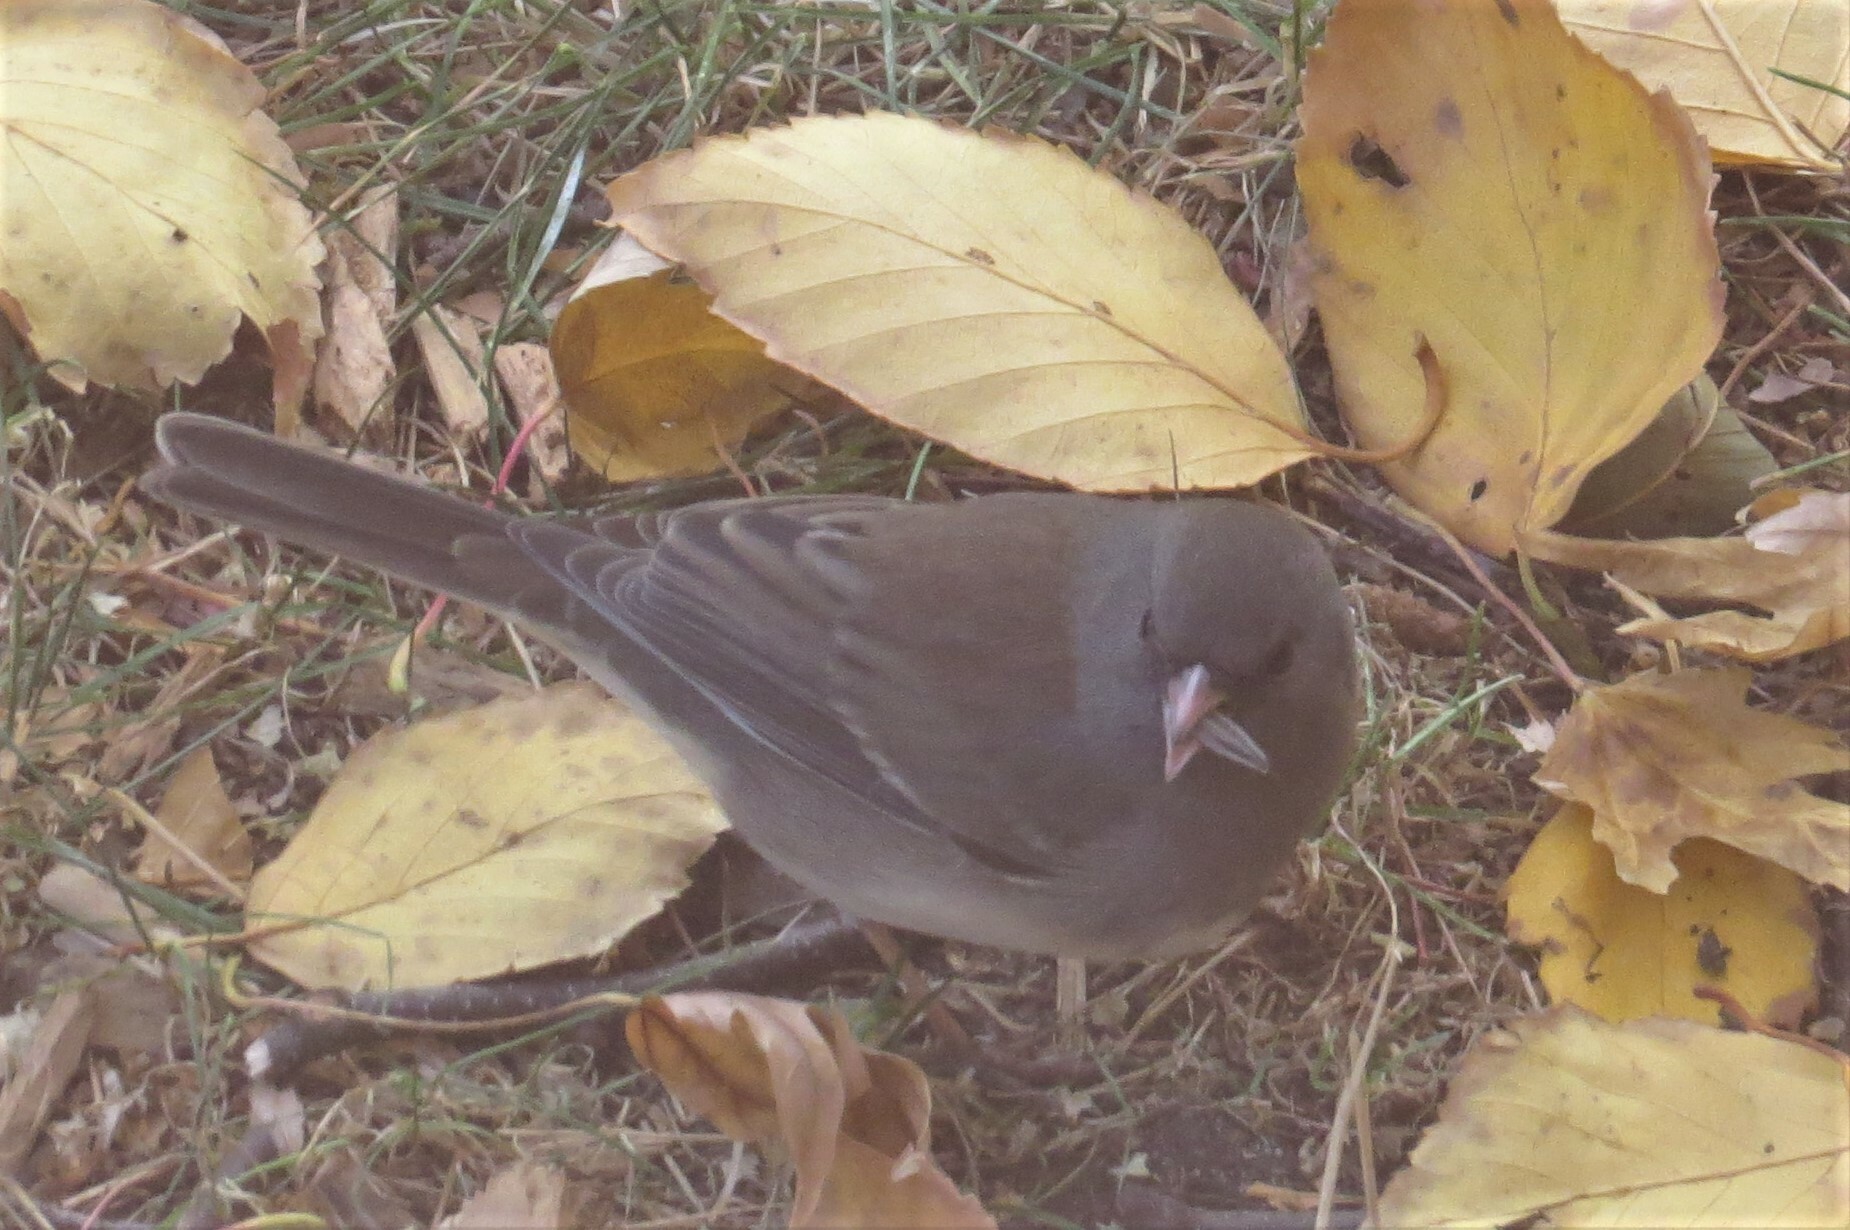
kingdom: Animalia
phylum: Chordata
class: Aves
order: Passeriformes
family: Passerellidae
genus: Junco
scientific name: Junco hyemalis
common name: Dark-eyed junco
